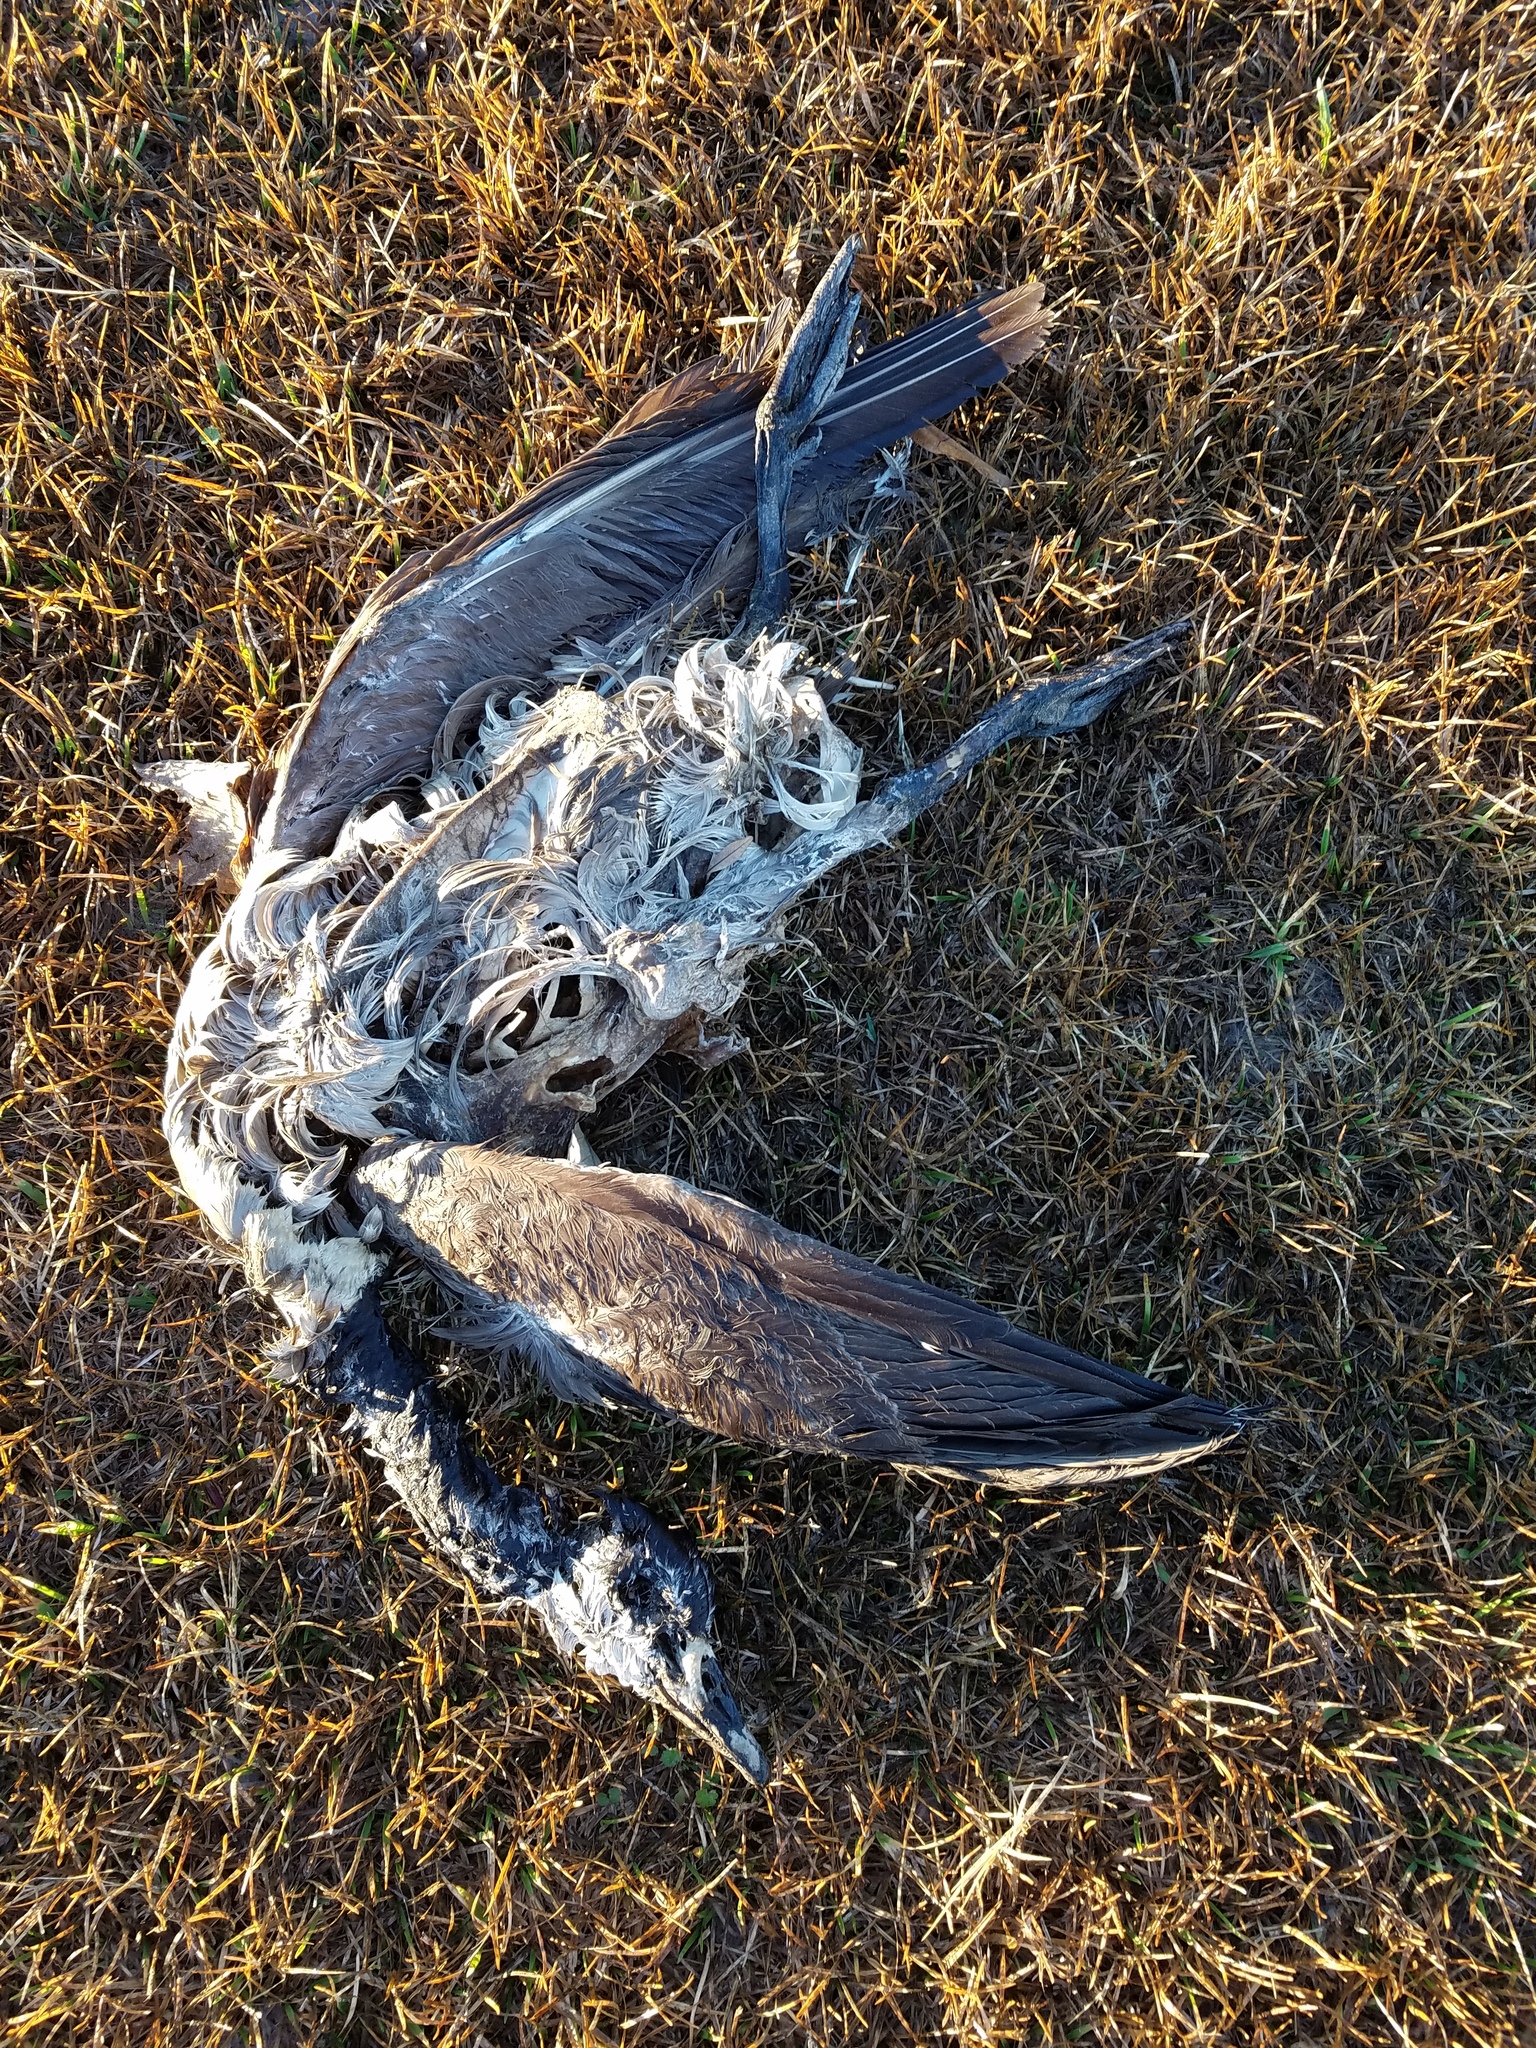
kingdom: Animalia
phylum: Chordata
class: Aves
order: Anseriformes
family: Anatidae
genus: Branta
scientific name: Branta canadensis
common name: Canada goose
